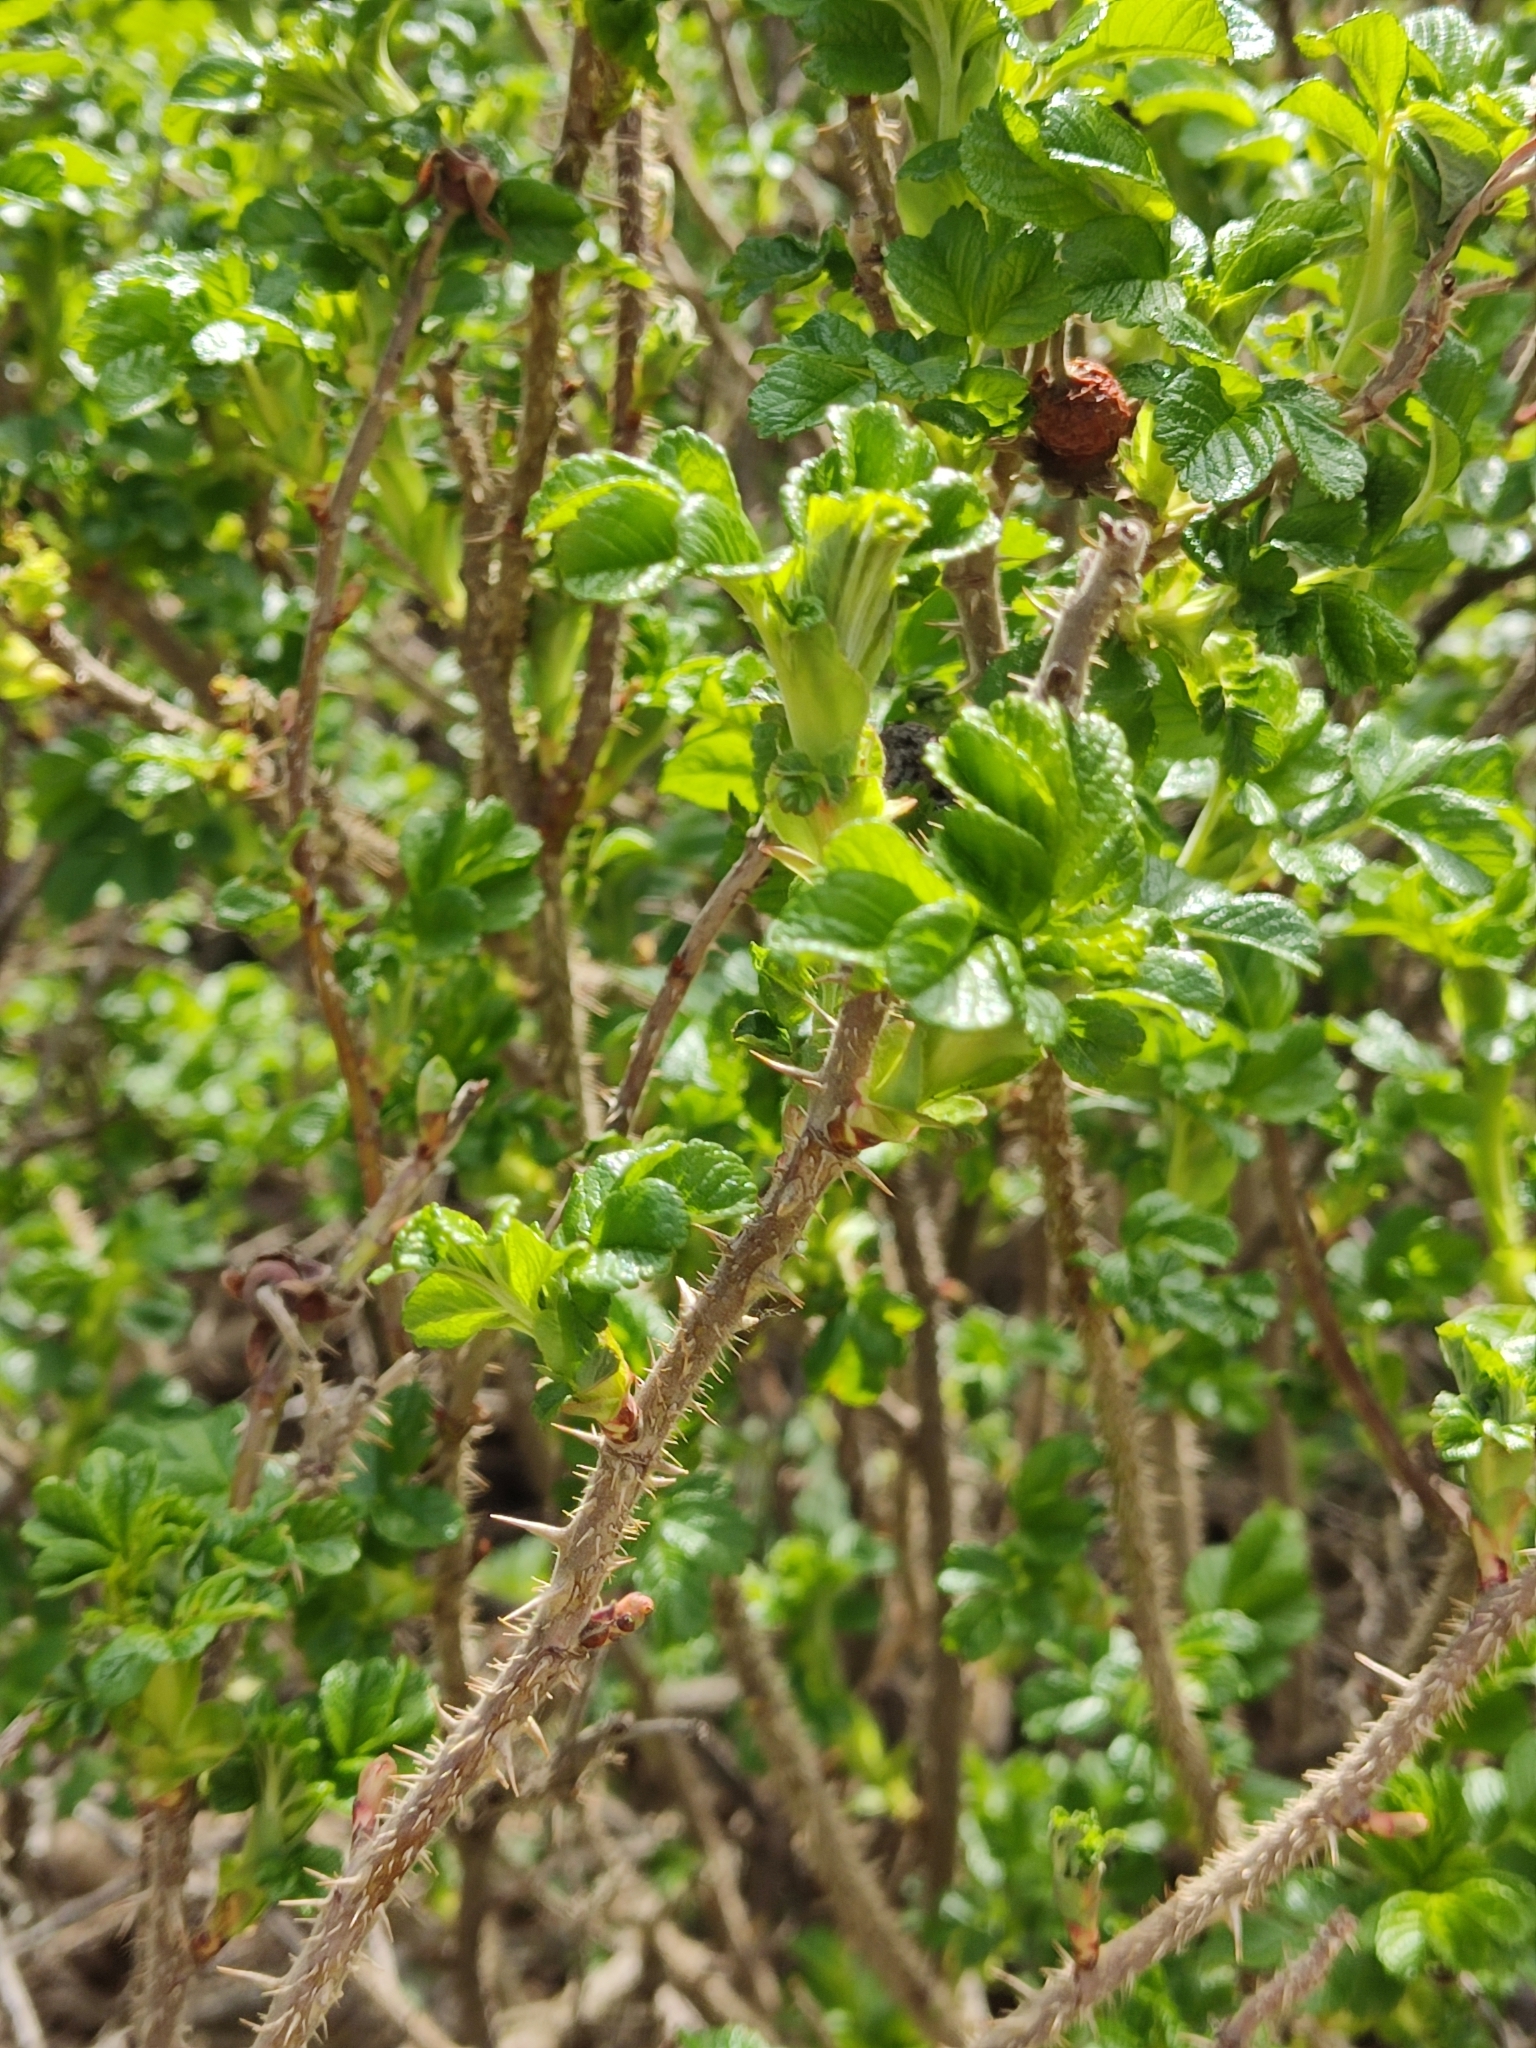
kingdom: Plantae
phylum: Tracheophyta
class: Magnoliopsida
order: Rosales
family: Rosaceae
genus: Rosa
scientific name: Rosa rugosa
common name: Japanese rose
